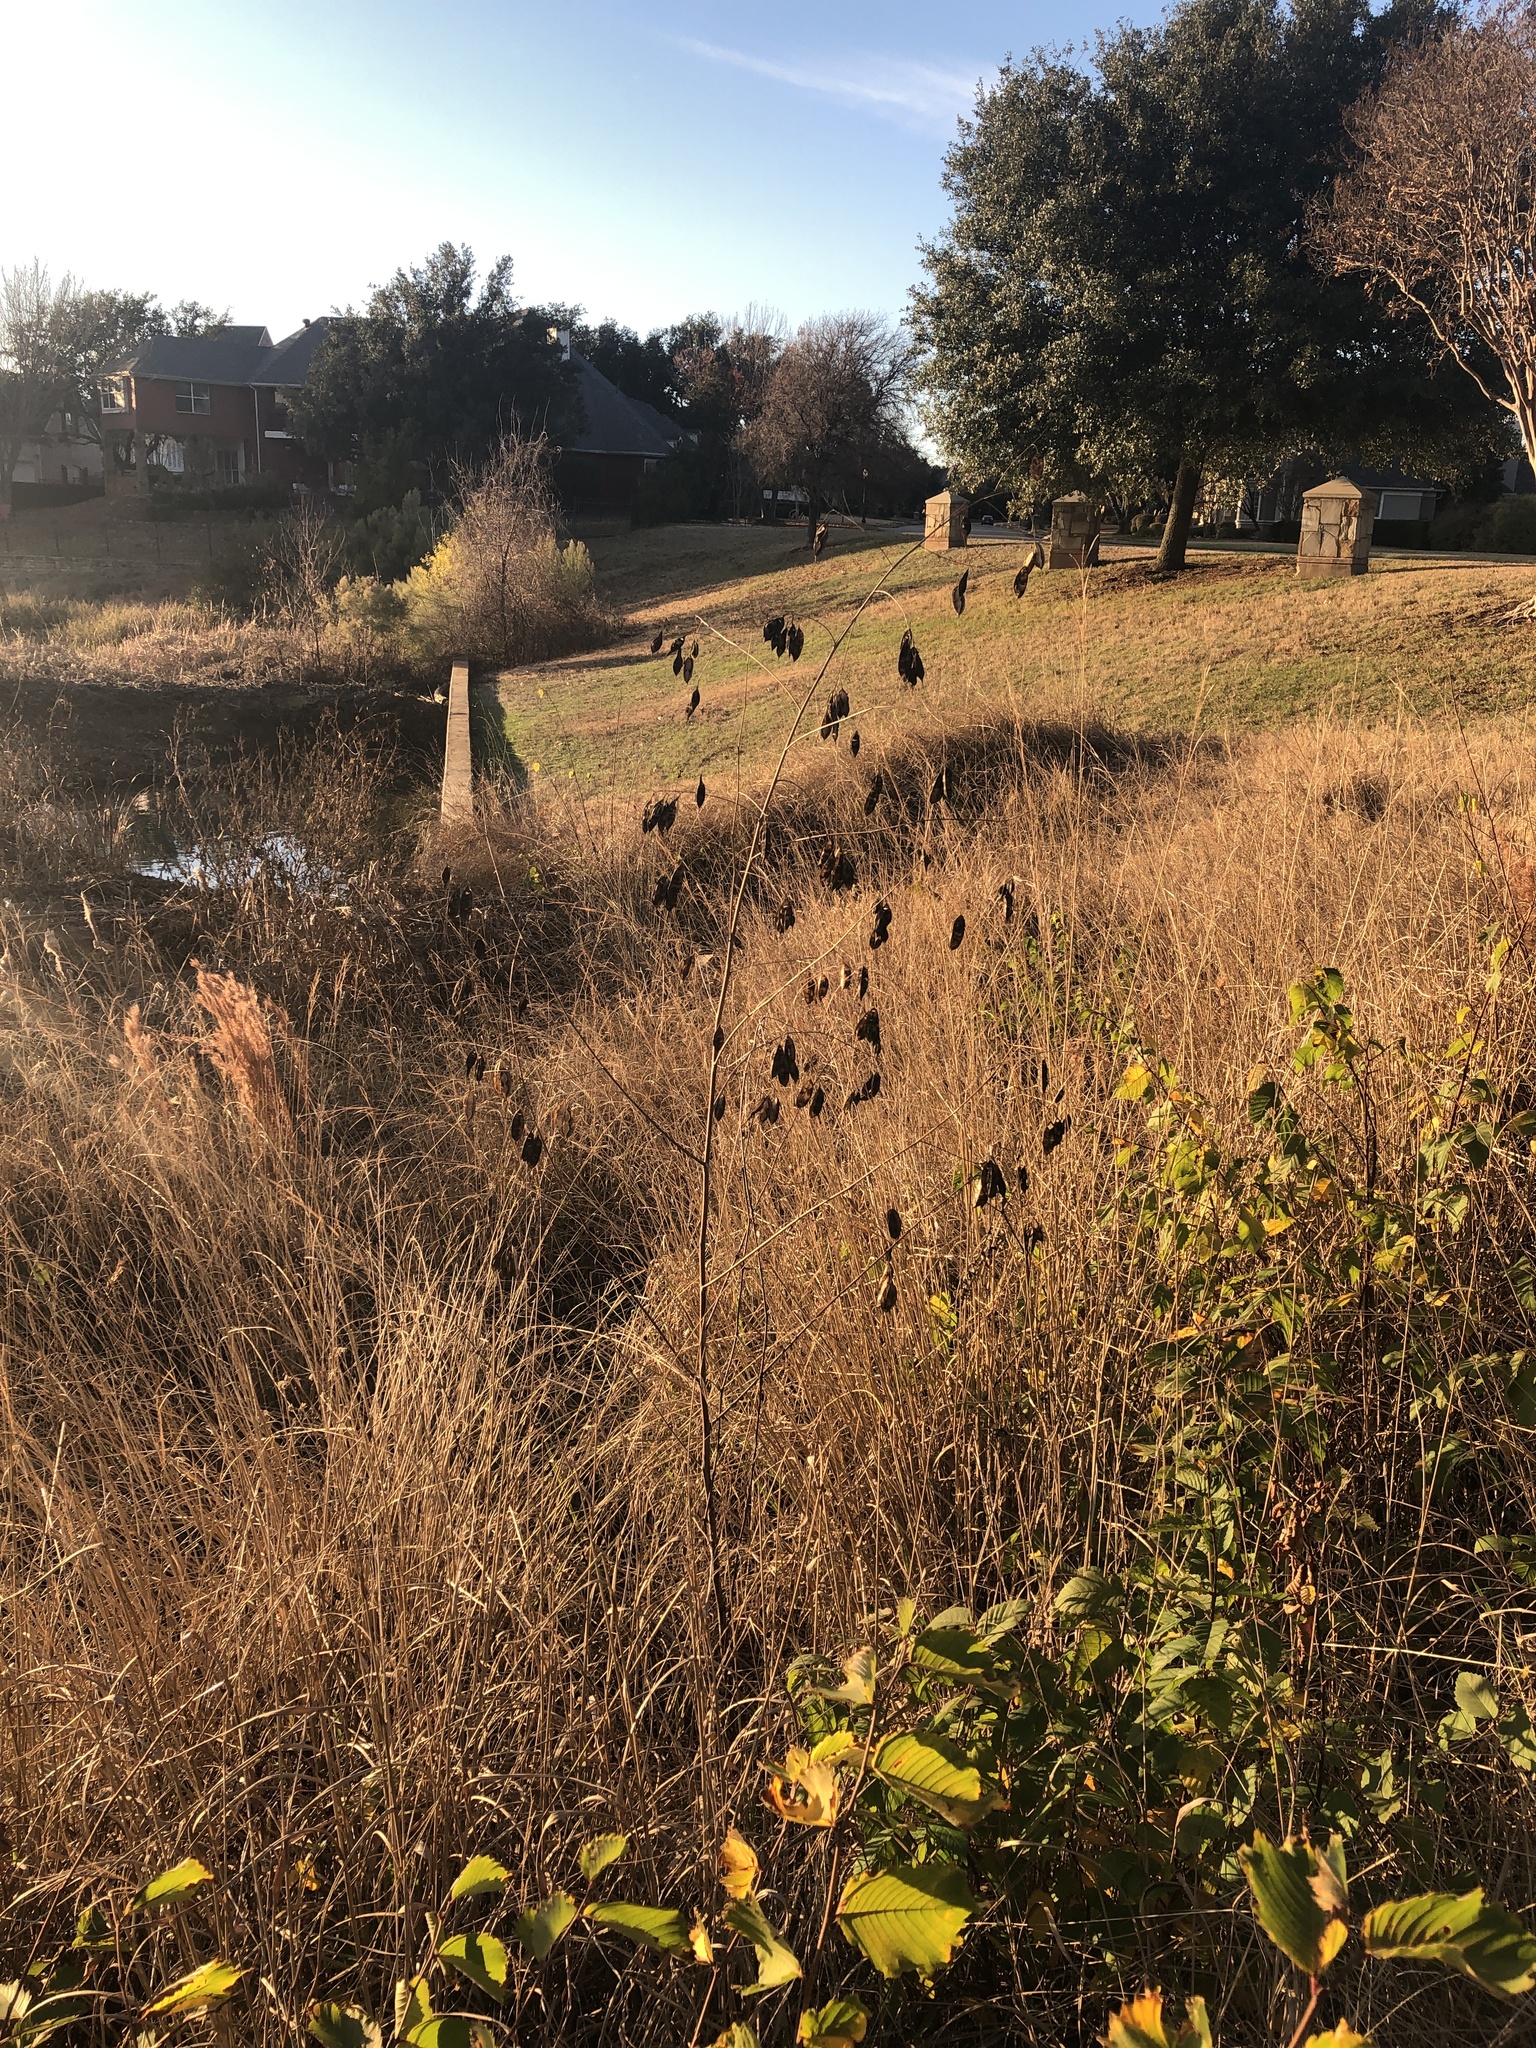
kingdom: Plantae
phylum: Tracheophyta
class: Magnoliopsida
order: Fabales
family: Fabaceae
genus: Sesbania
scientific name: Sesbania vesicaria
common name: Bagpod
